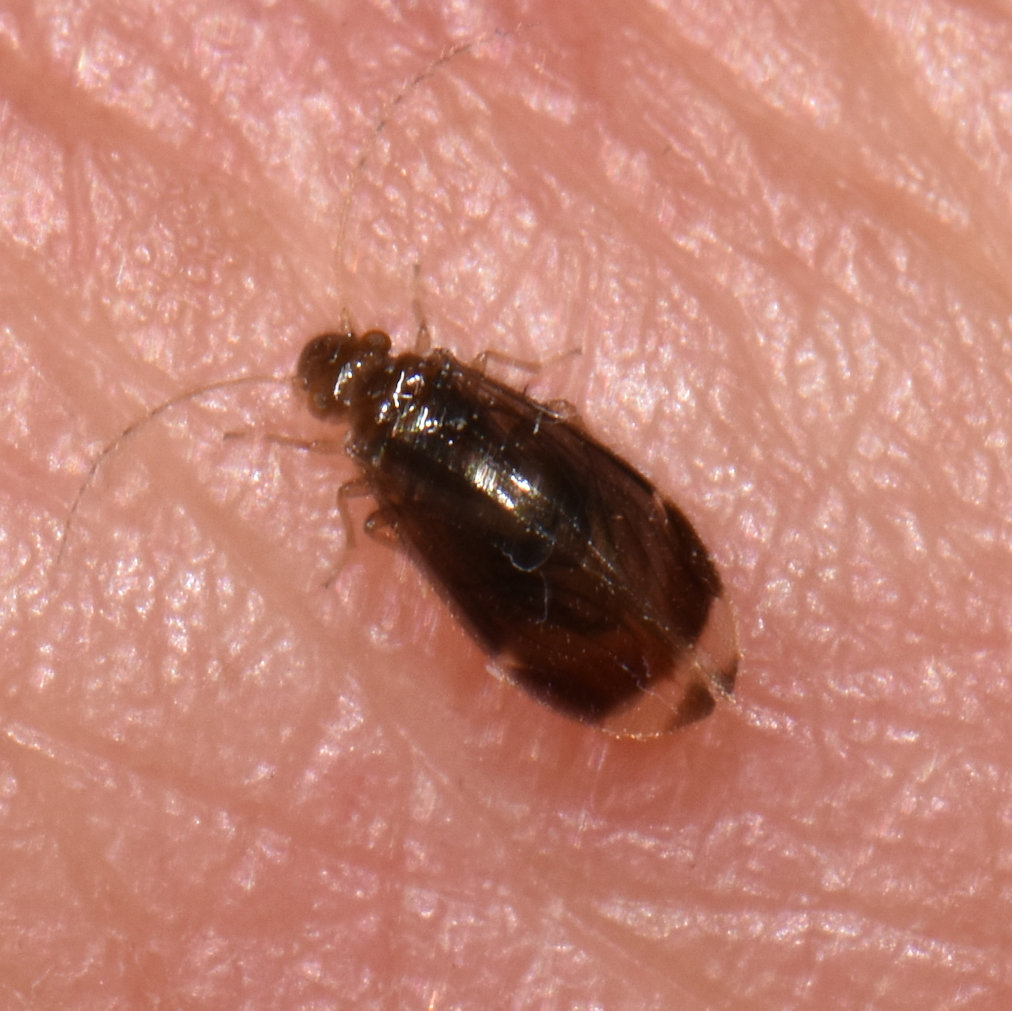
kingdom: Animalia
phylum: Arthropoda
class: Insecta
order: Psocodea
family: Amphipsocidae
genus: Polypsocus
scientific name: Polypsocus corruptus
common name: Corrupt barklouse
